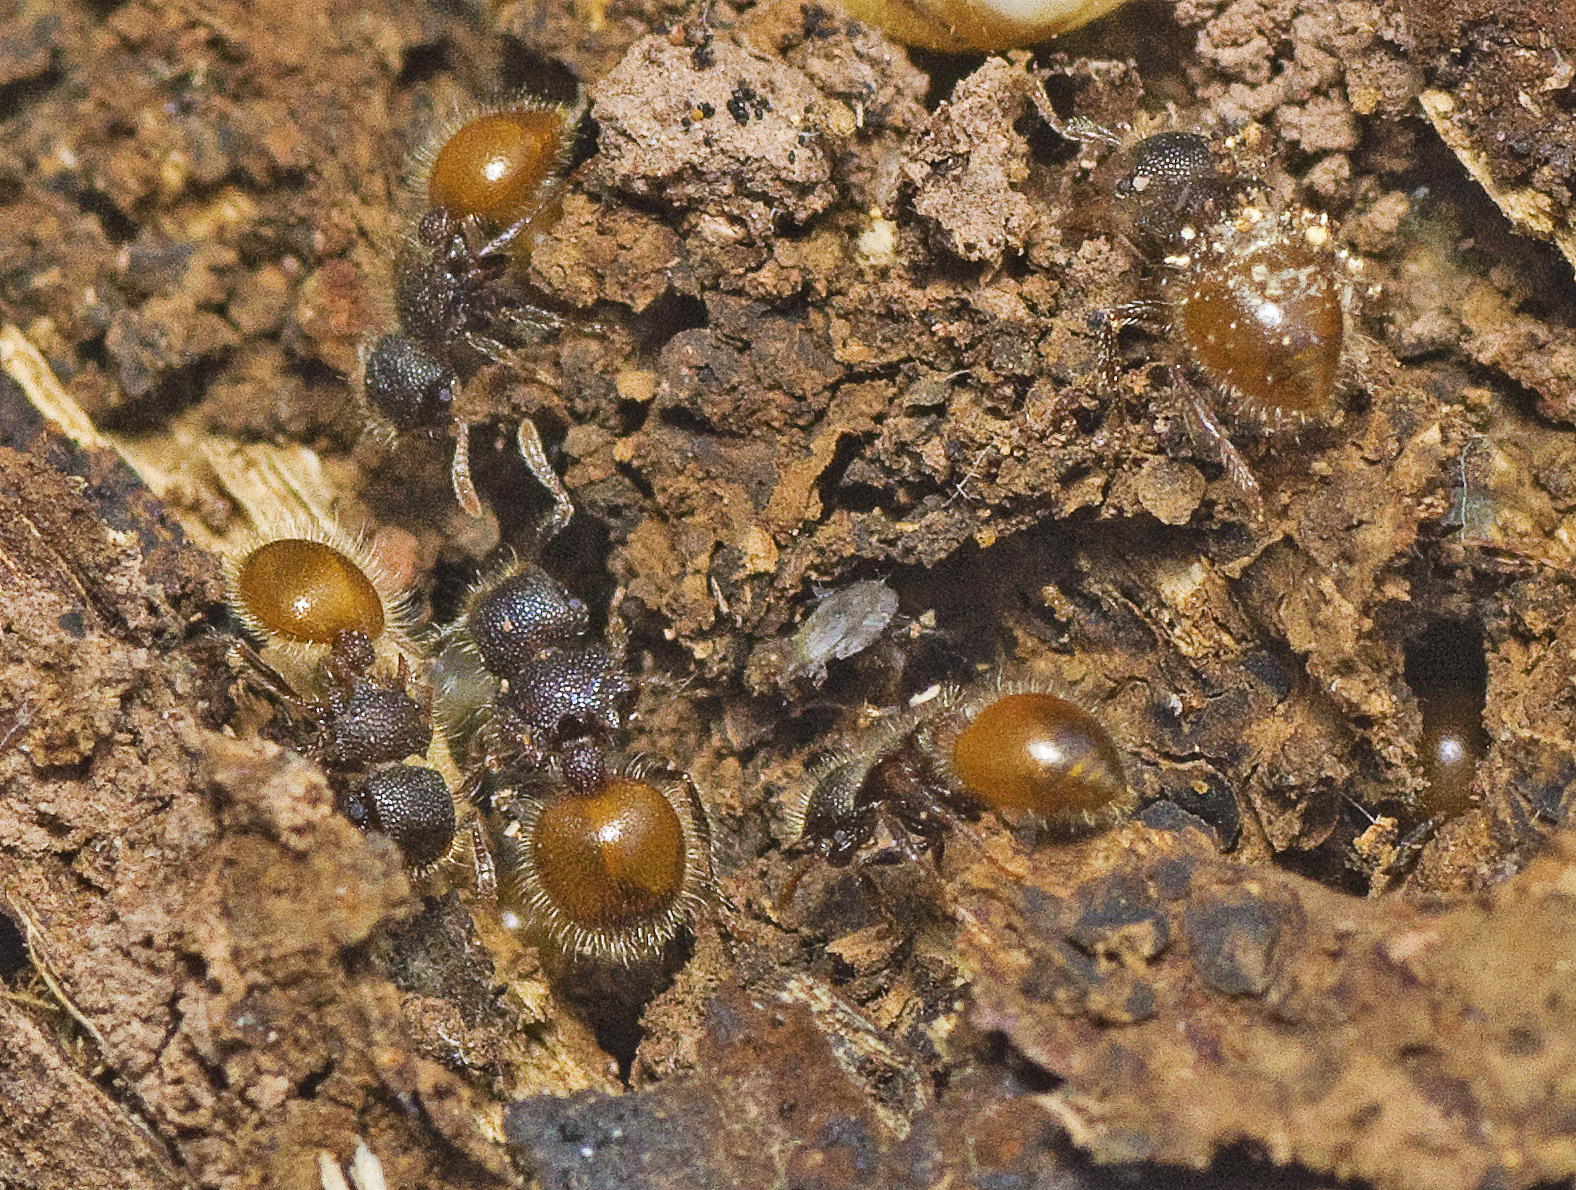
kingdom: Animalia
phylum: Arthropoda
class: Insecta
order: Hymenoptera
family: Formicidae
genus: Meranoplus
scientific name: Meranoplus hirsutus
